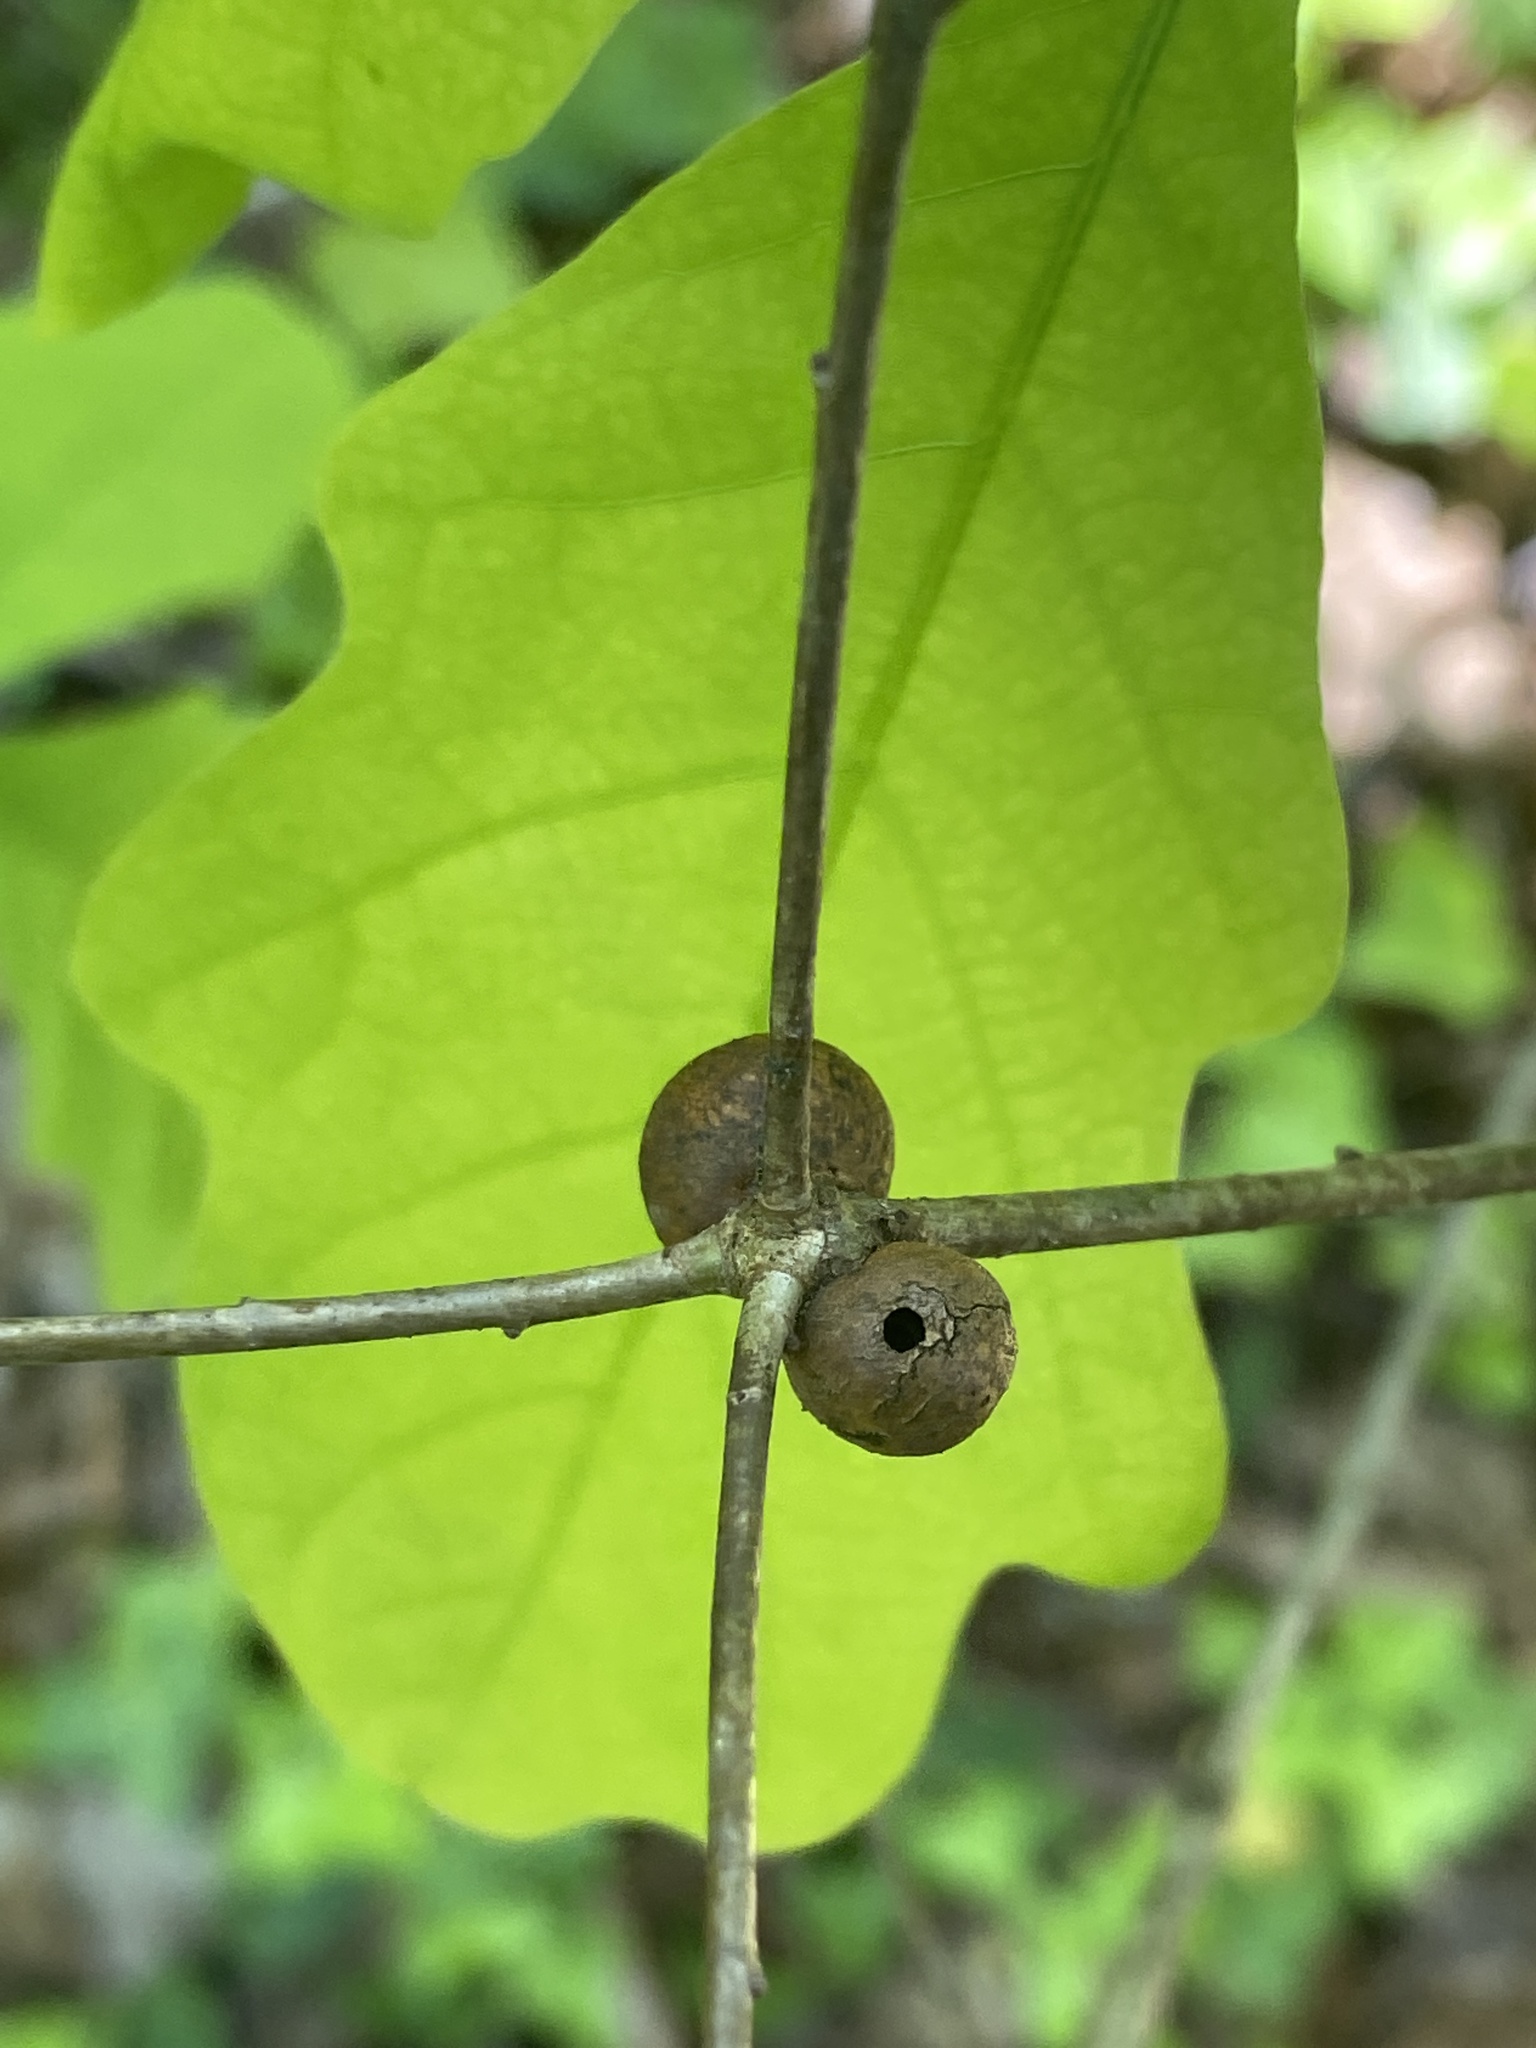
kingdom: Animalia
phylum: Arthropoda
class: Insecta
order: Hymenoptera
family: Cynipidae
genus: Disholcaspis
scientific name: Disholcaspis quercusglobulus
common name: Round bullet gall wasp
